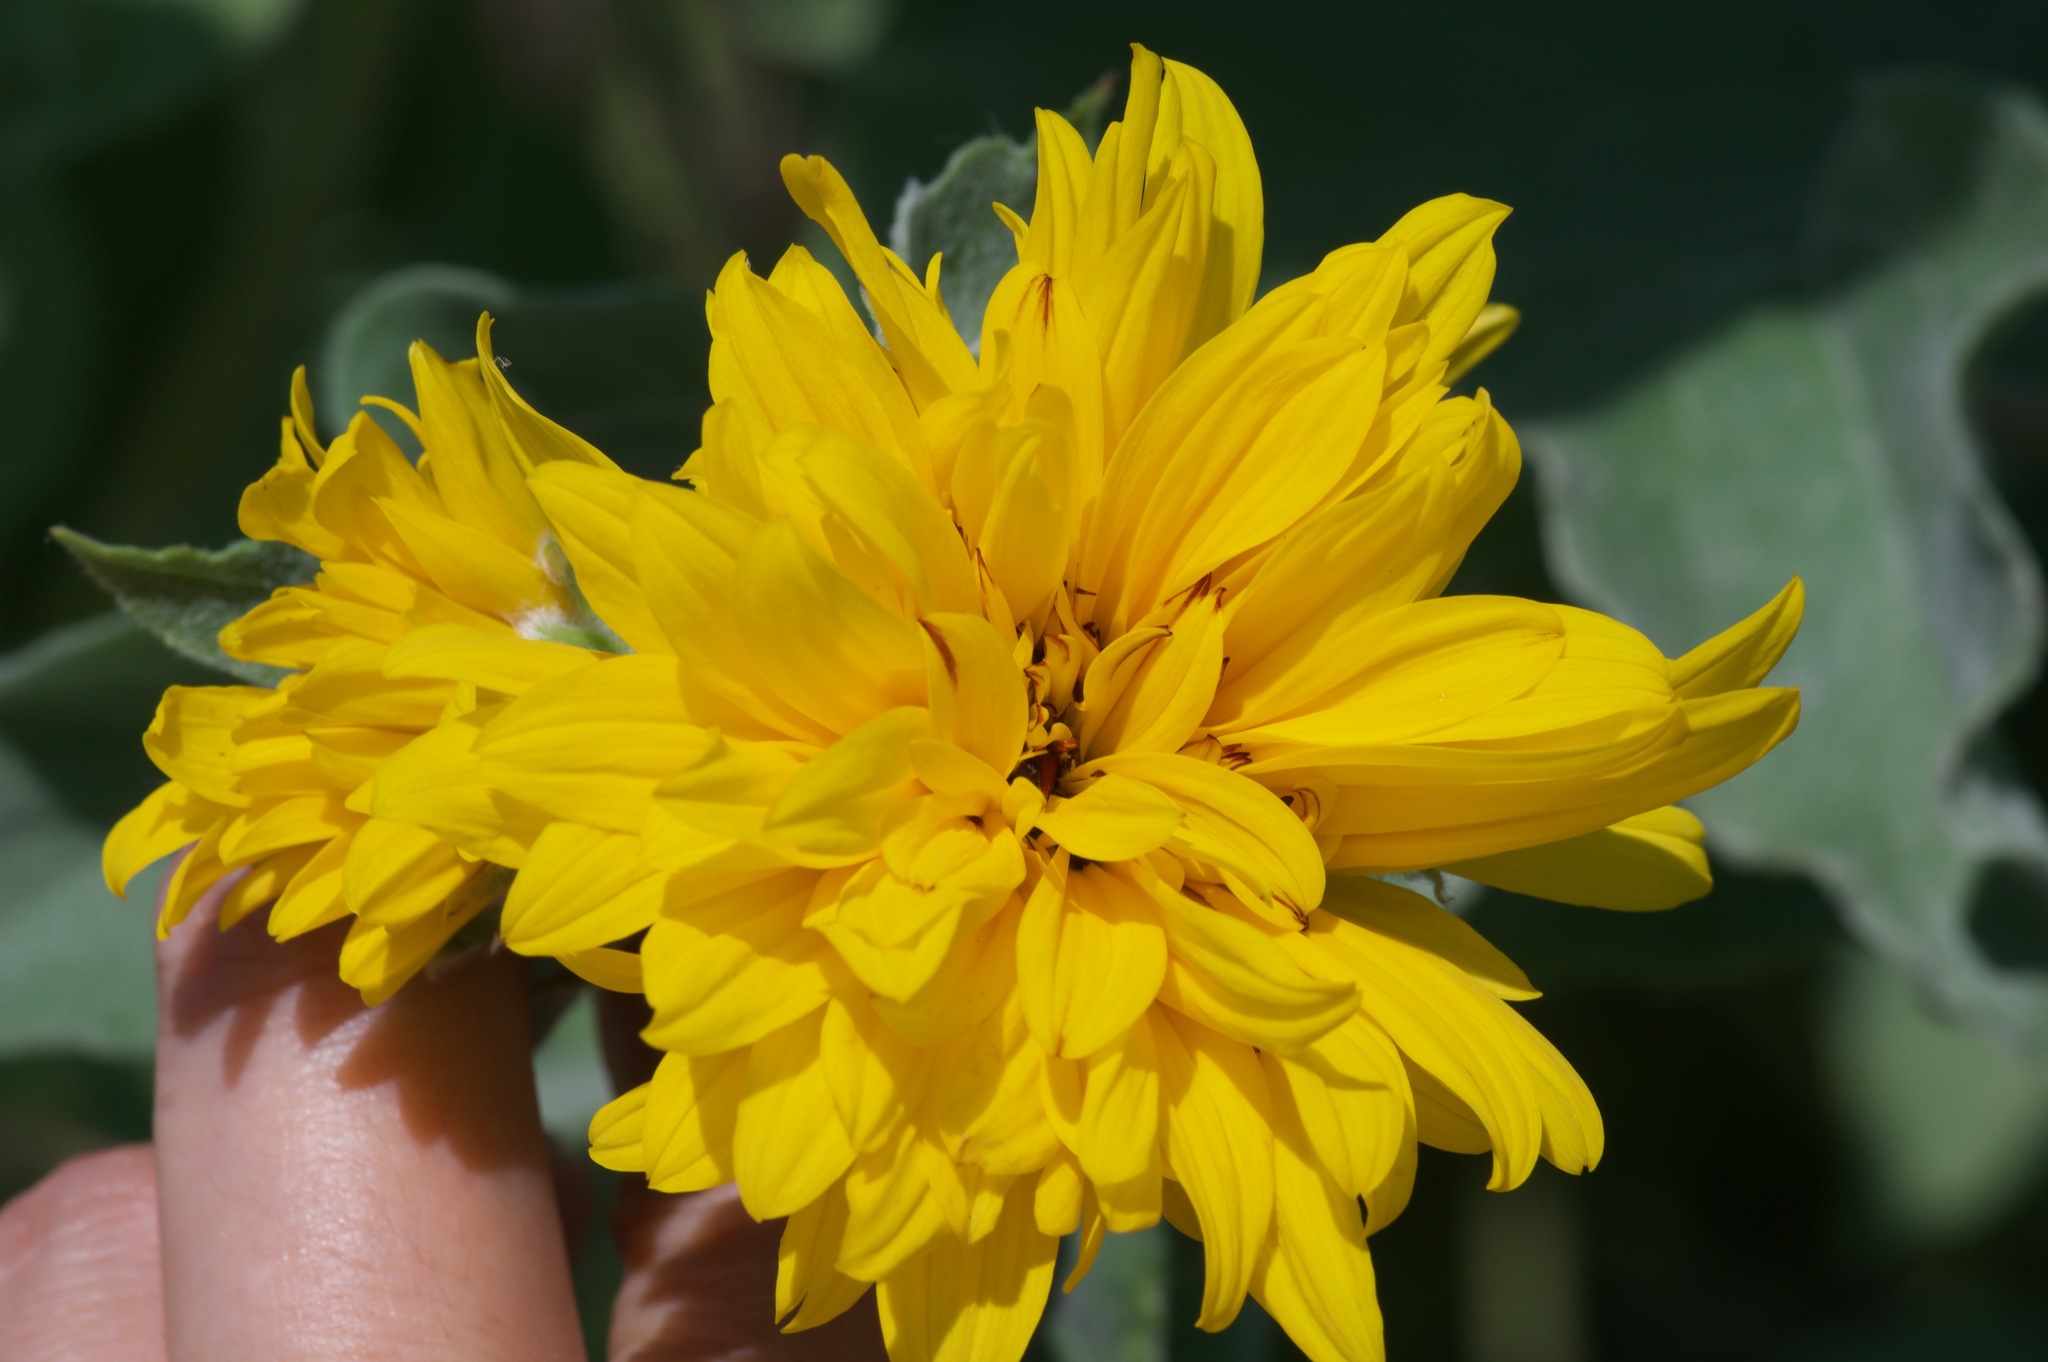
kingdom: Plantae
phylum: Tracheophyta
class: Magnoliopsida
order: Asterales
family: Asteraceae
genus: Helianthus
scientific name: Helianthus argophyllus
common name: Silverleaf sunflower
